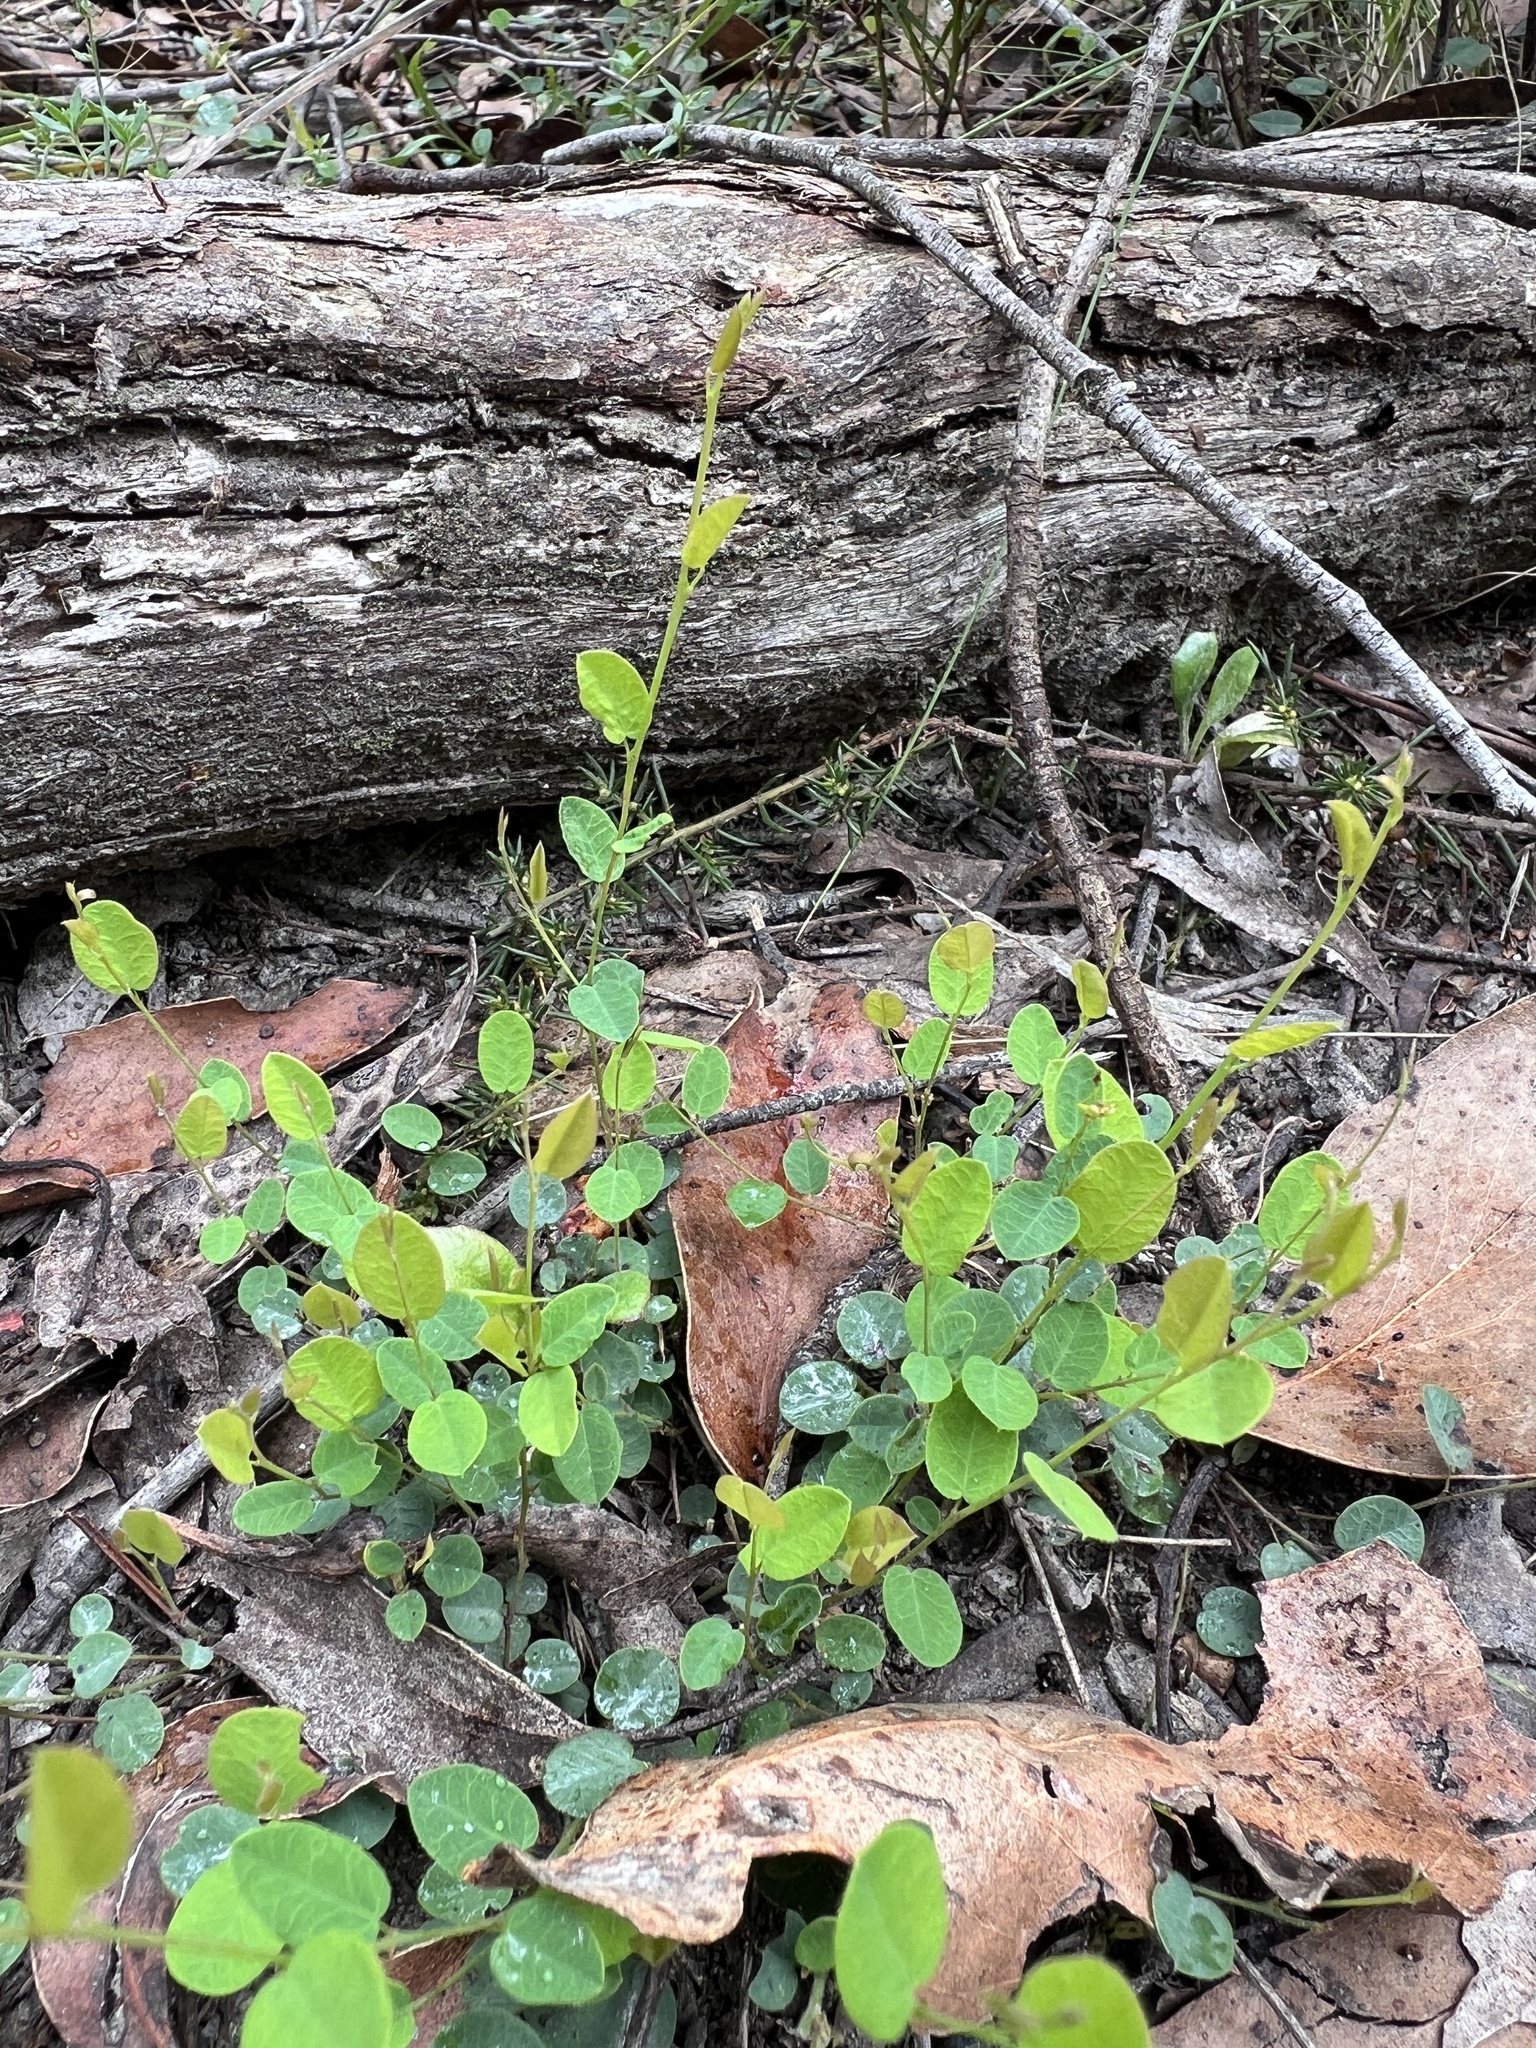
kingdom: Plantae
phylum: Tracheophyta
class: Magnoliopsida
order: Fabales
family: Fabaceae
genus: Bossiaea
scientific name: Bossiaea prostrata
